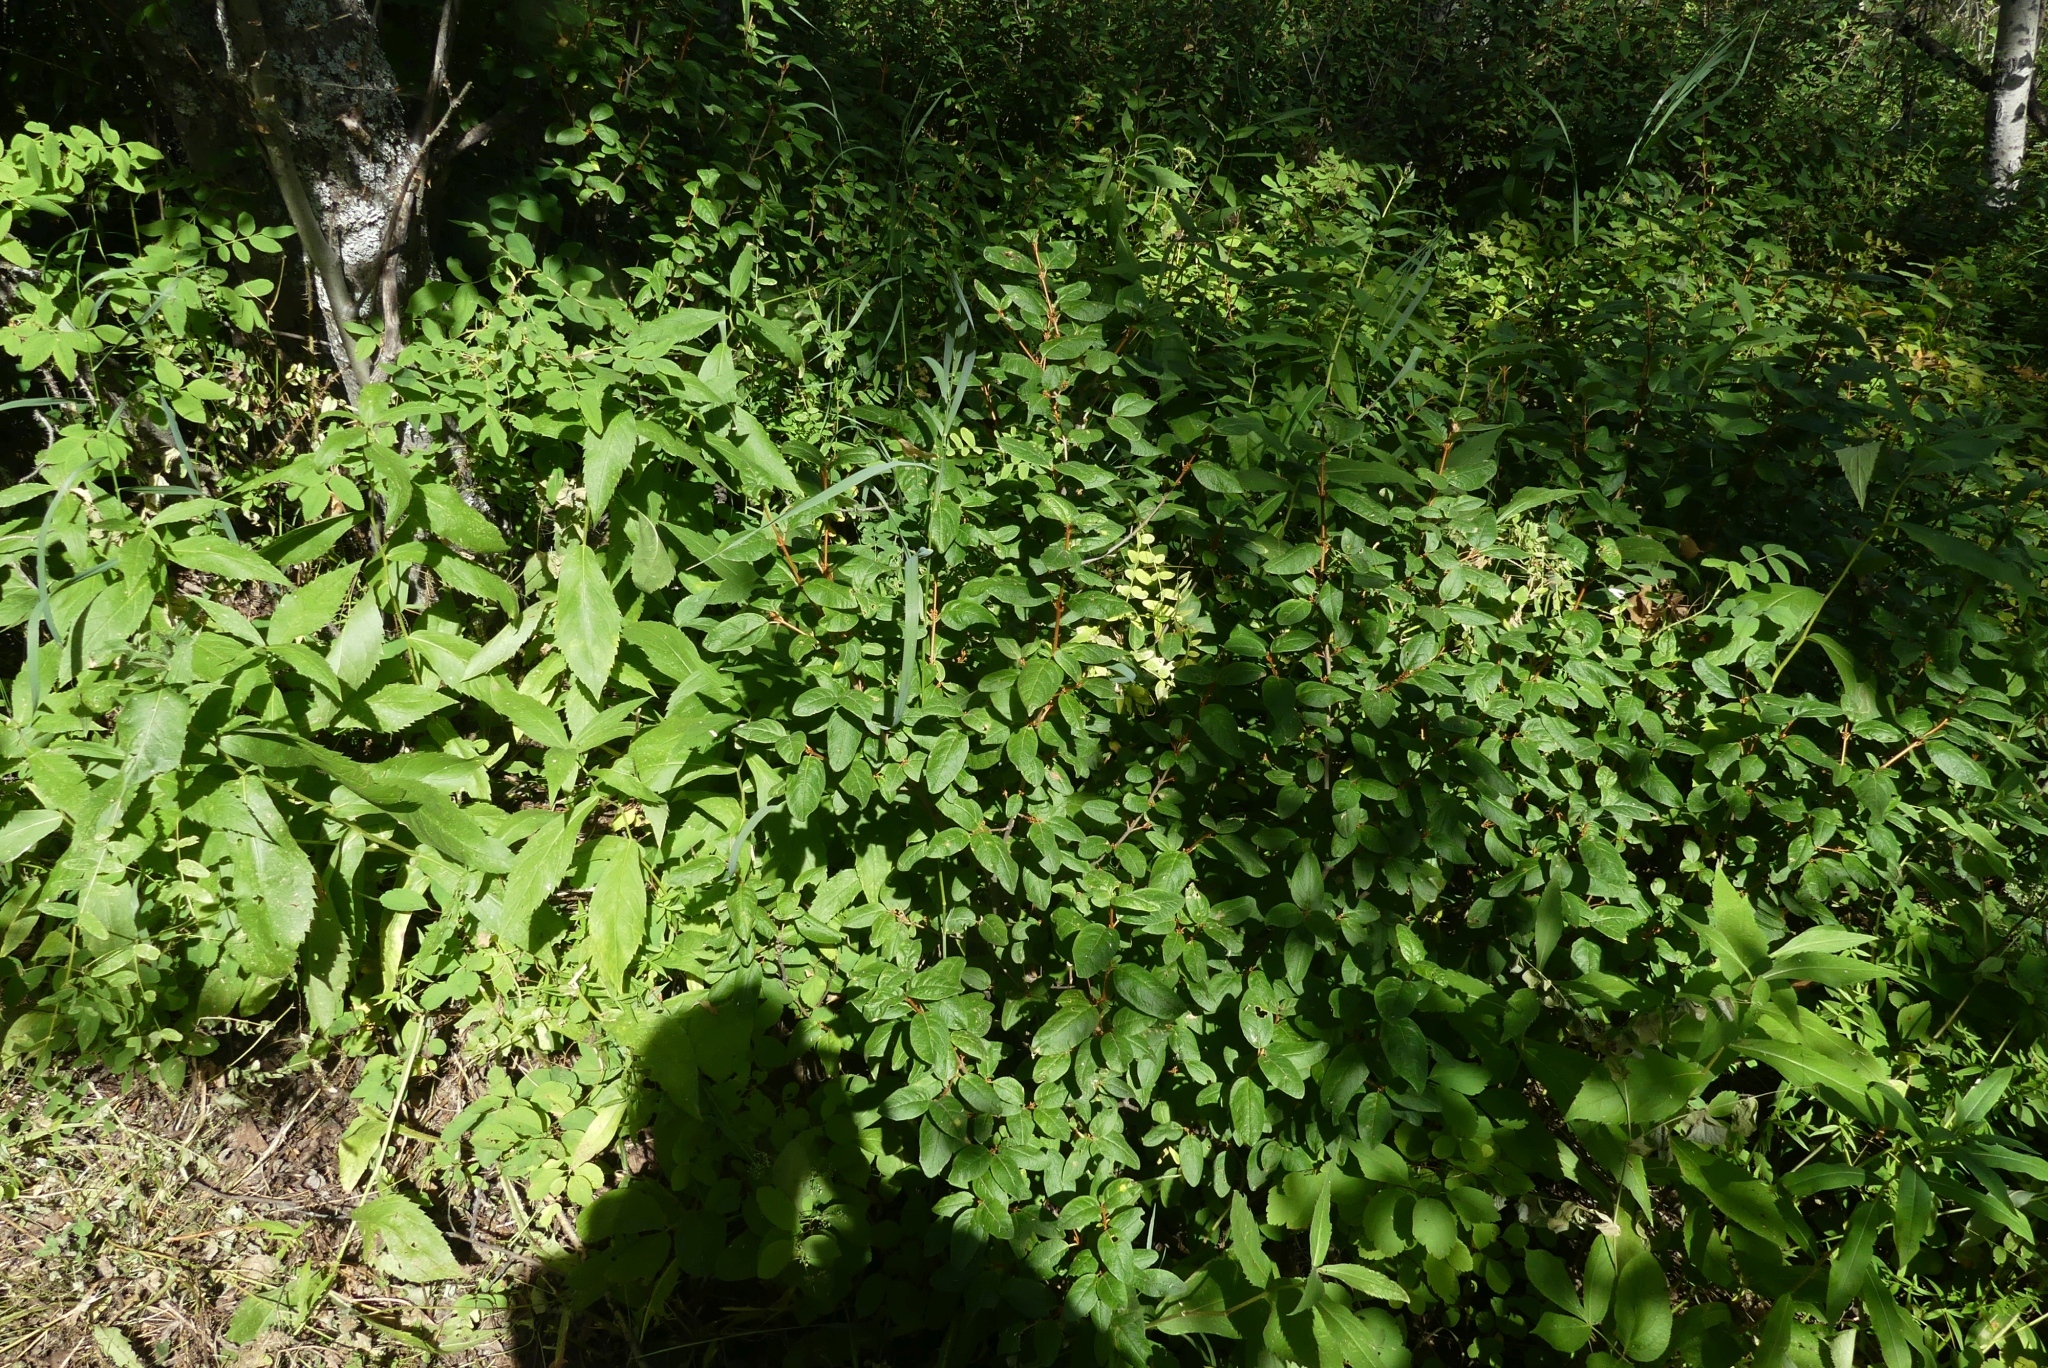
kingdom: Plantae
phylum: Tracheophyta
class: Magnoliopsida
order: Rosales
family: Elaeagnaceae
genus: Shepherdia
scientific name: Shepherdia canadensis
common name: Soapberry
